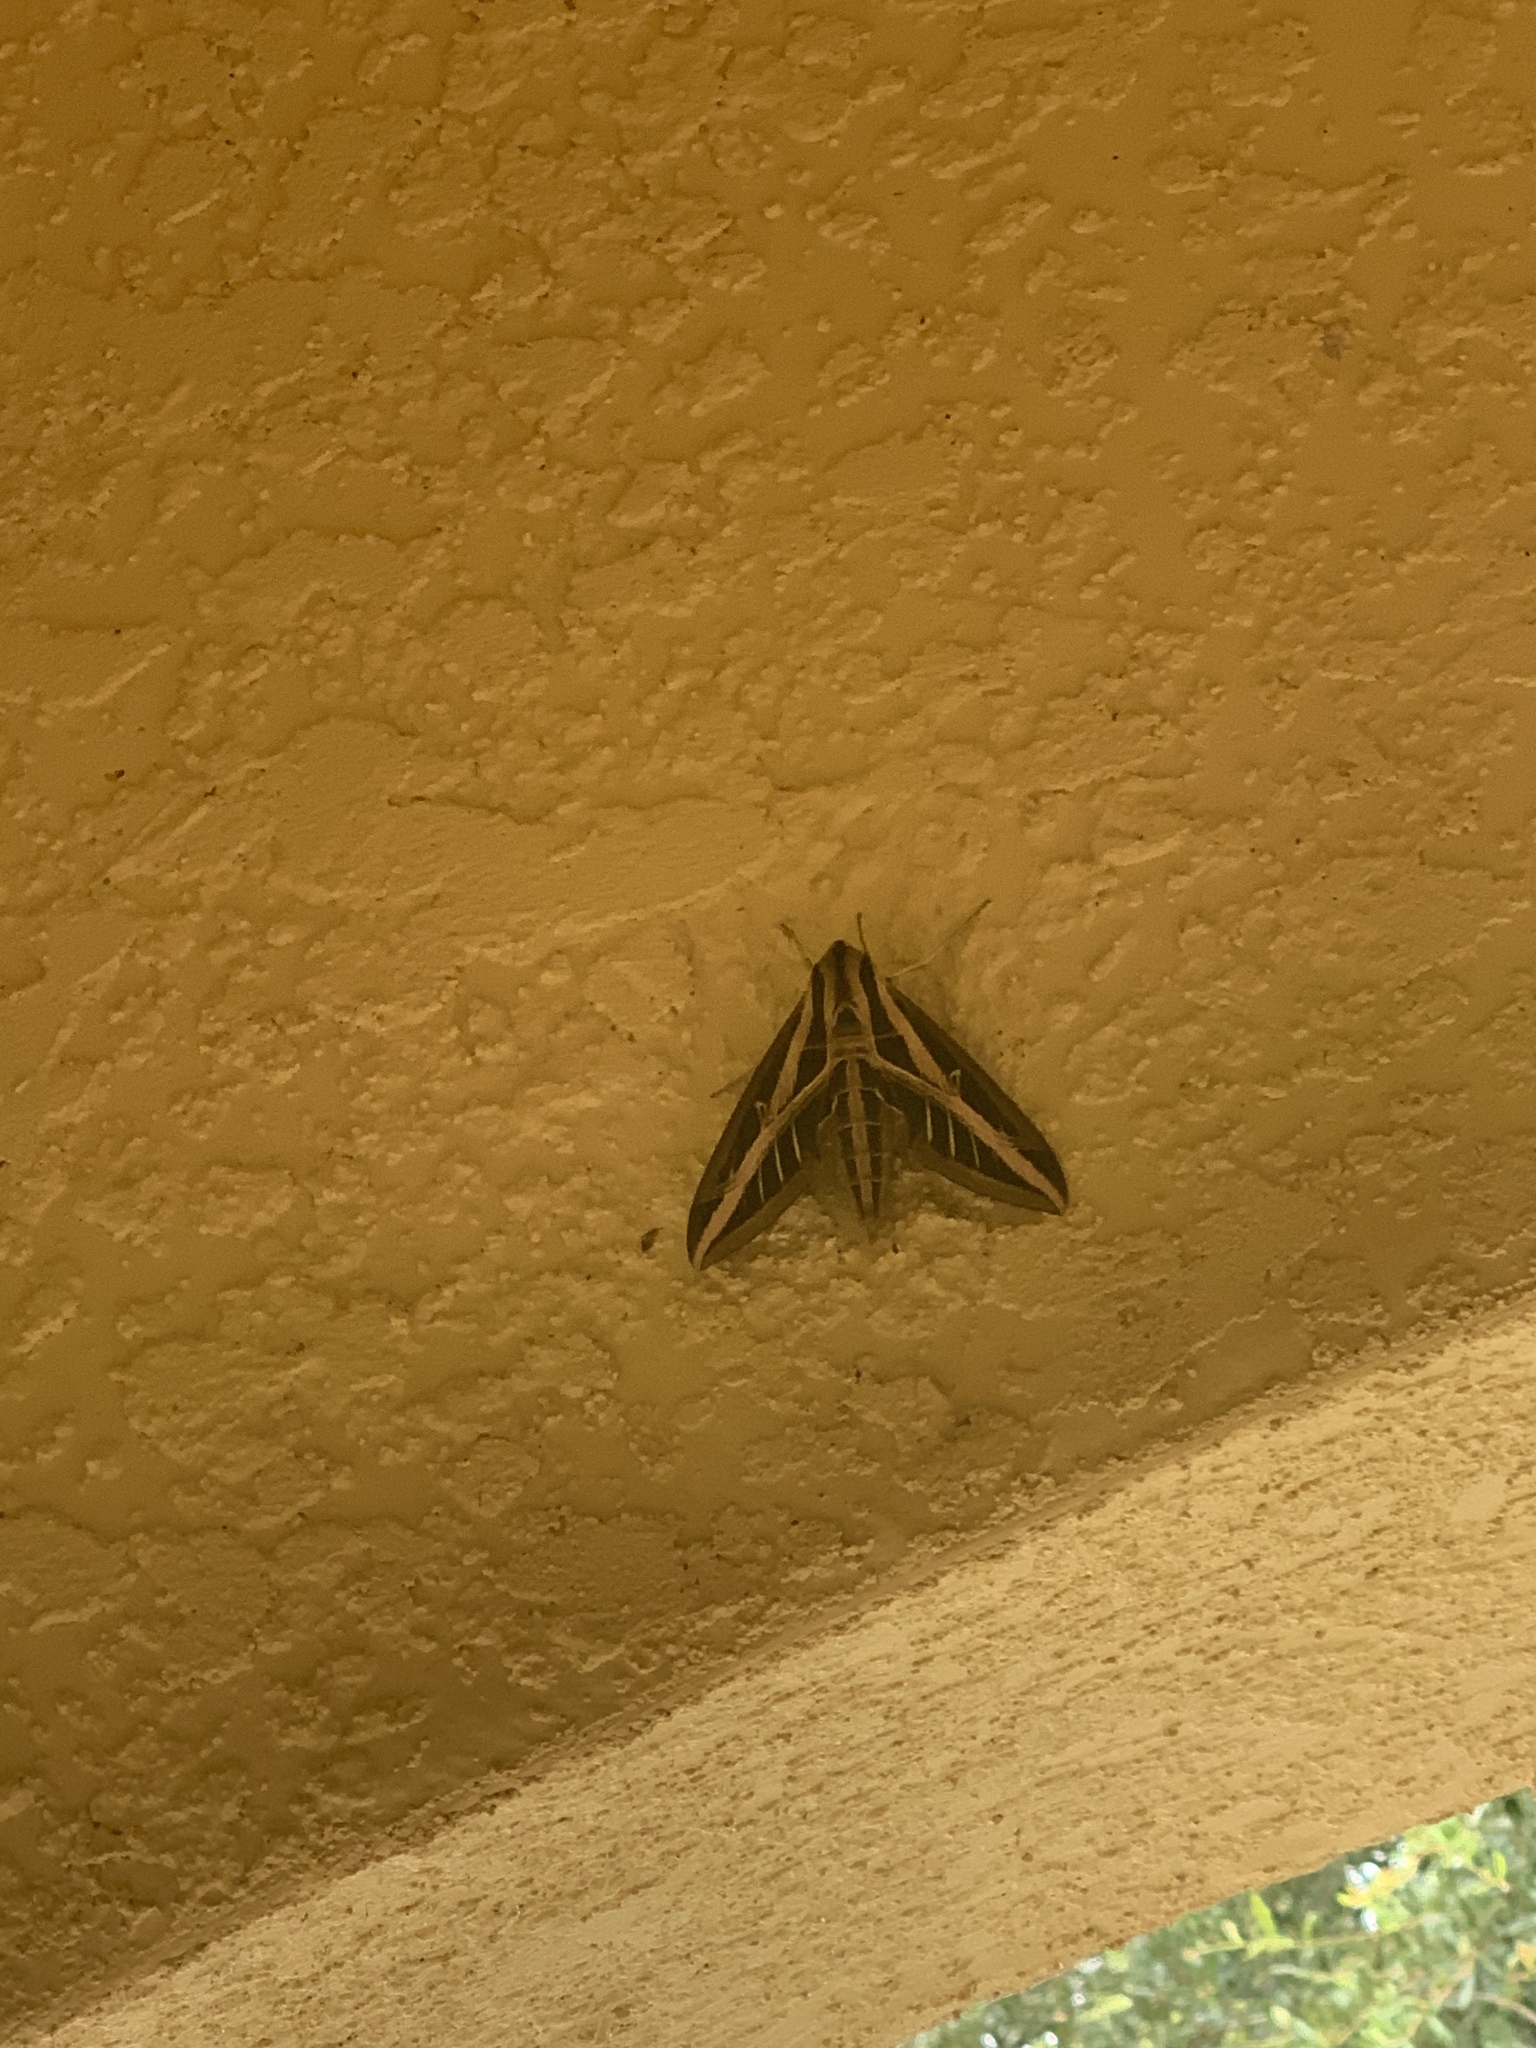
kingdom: Animalia
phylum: Arthropoda
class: Insecta
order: Lepidoptera
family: Sphingidae
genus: Eumorpha
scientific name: Eumorpha fasciatus
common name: Banded sphinx
